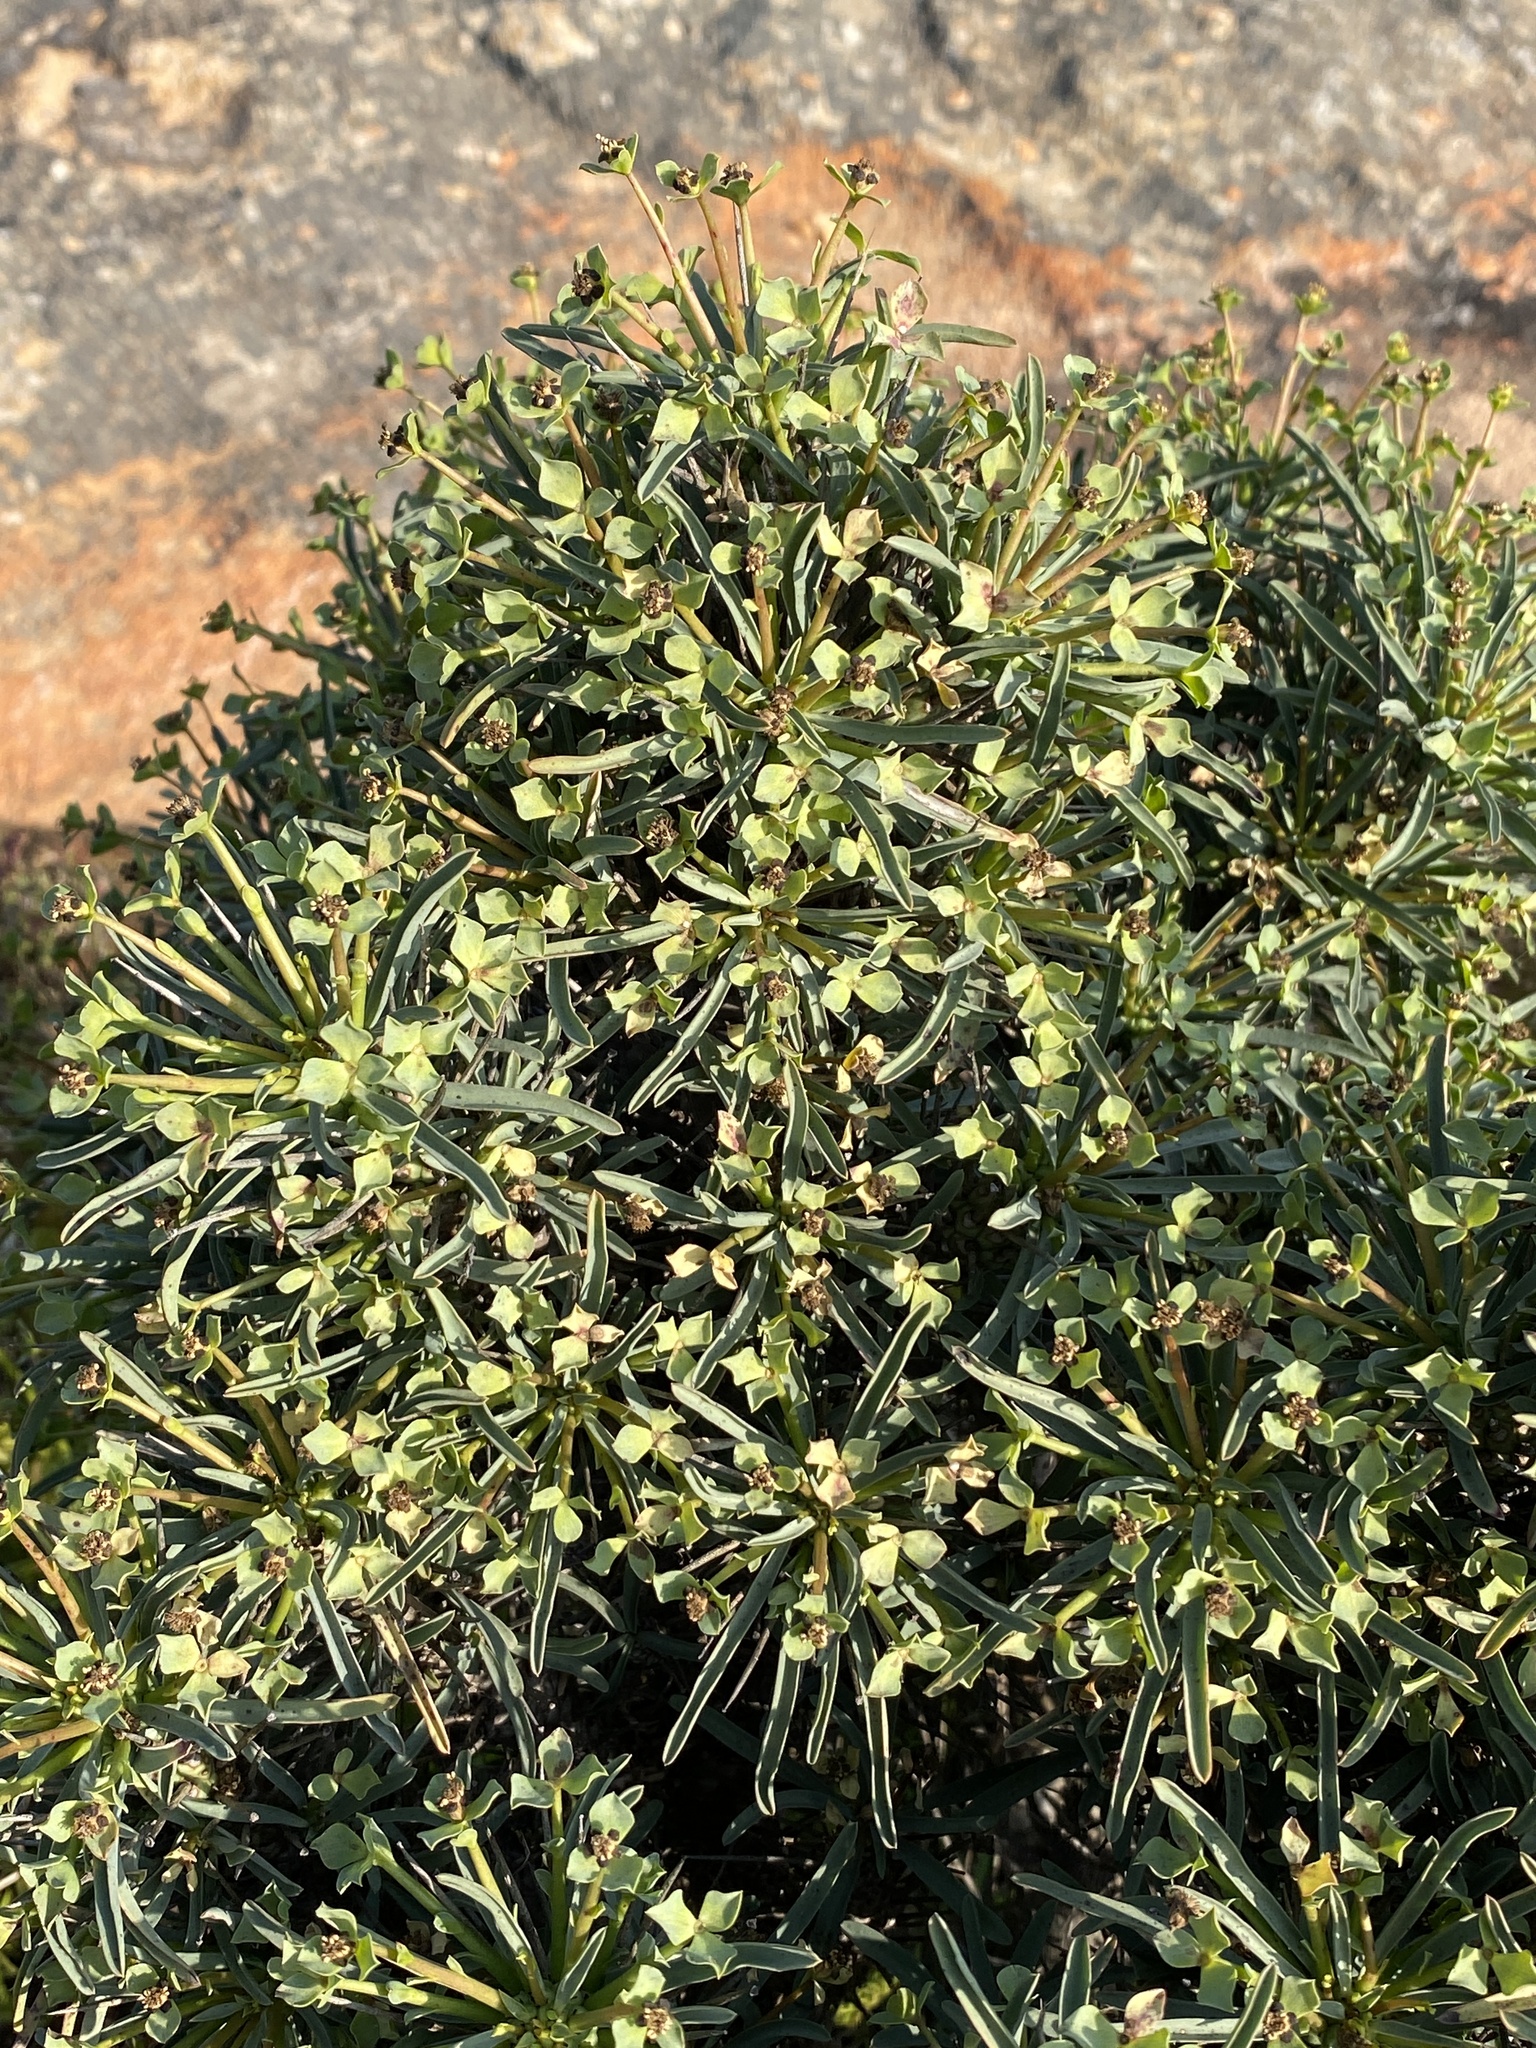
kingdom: Plantae
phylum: Tracheophyta
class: Magnoliopsida
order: Malpighiales
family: Euphorbiaceae
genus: Euphorbia
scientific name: Euphorbia loricata
